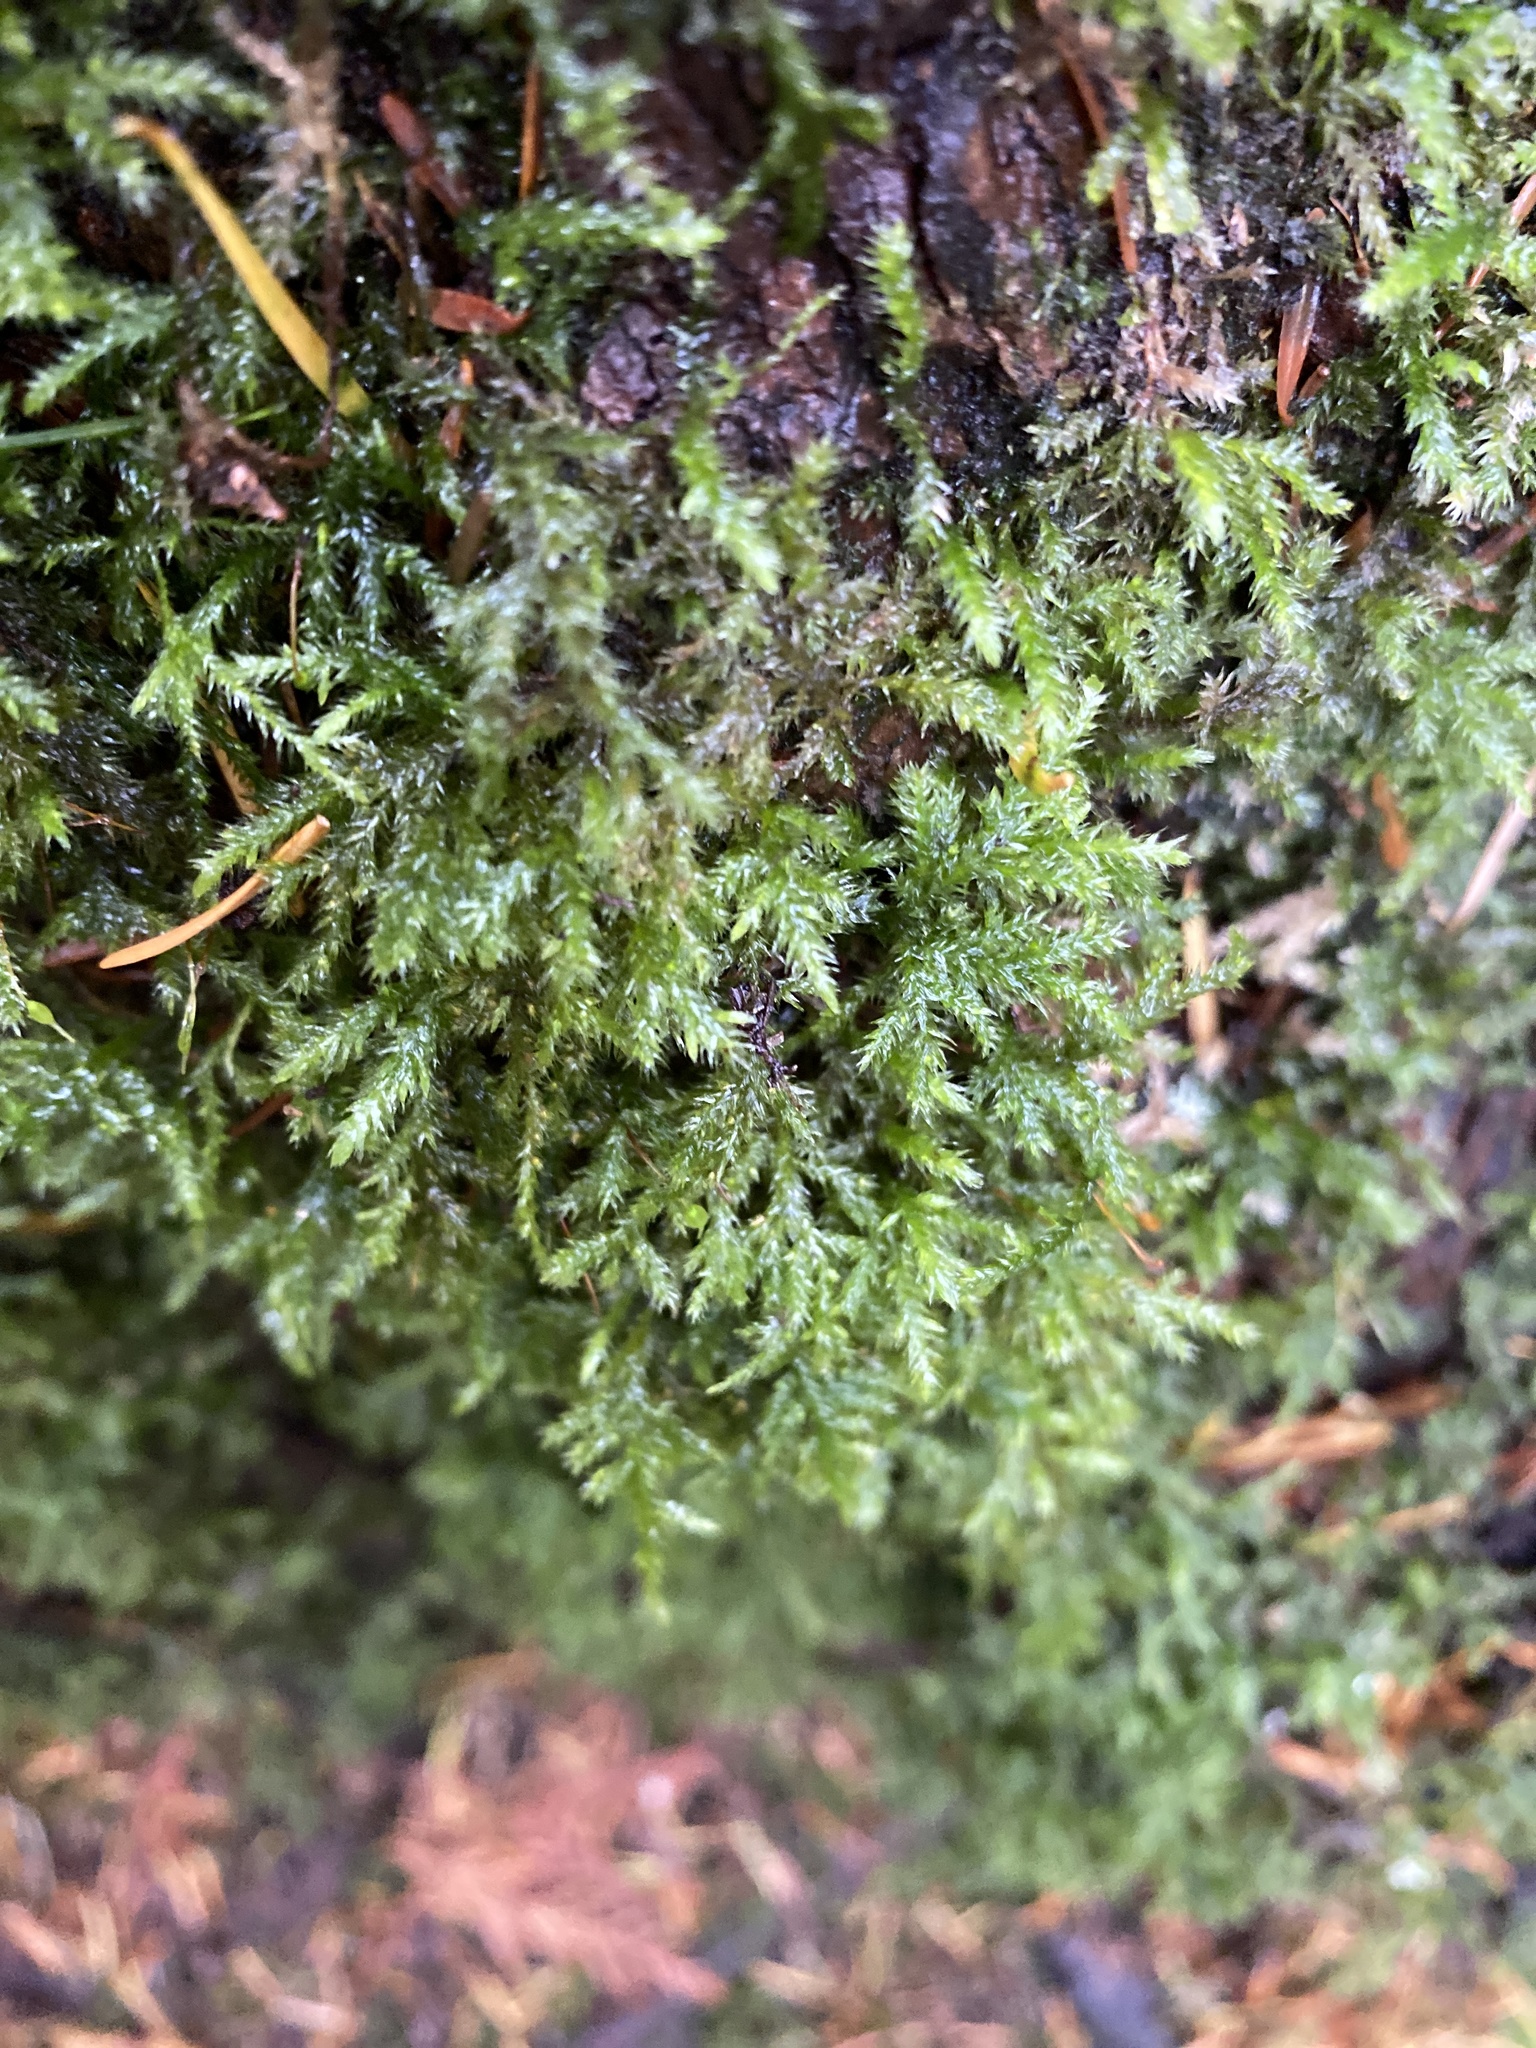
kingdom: Plantae
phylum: Bryophyta
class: Bryopsida
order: Hypnales
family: Lembophyllaceae
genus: Pseudisothecium
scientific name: Pseudisothecium stoloniferum
